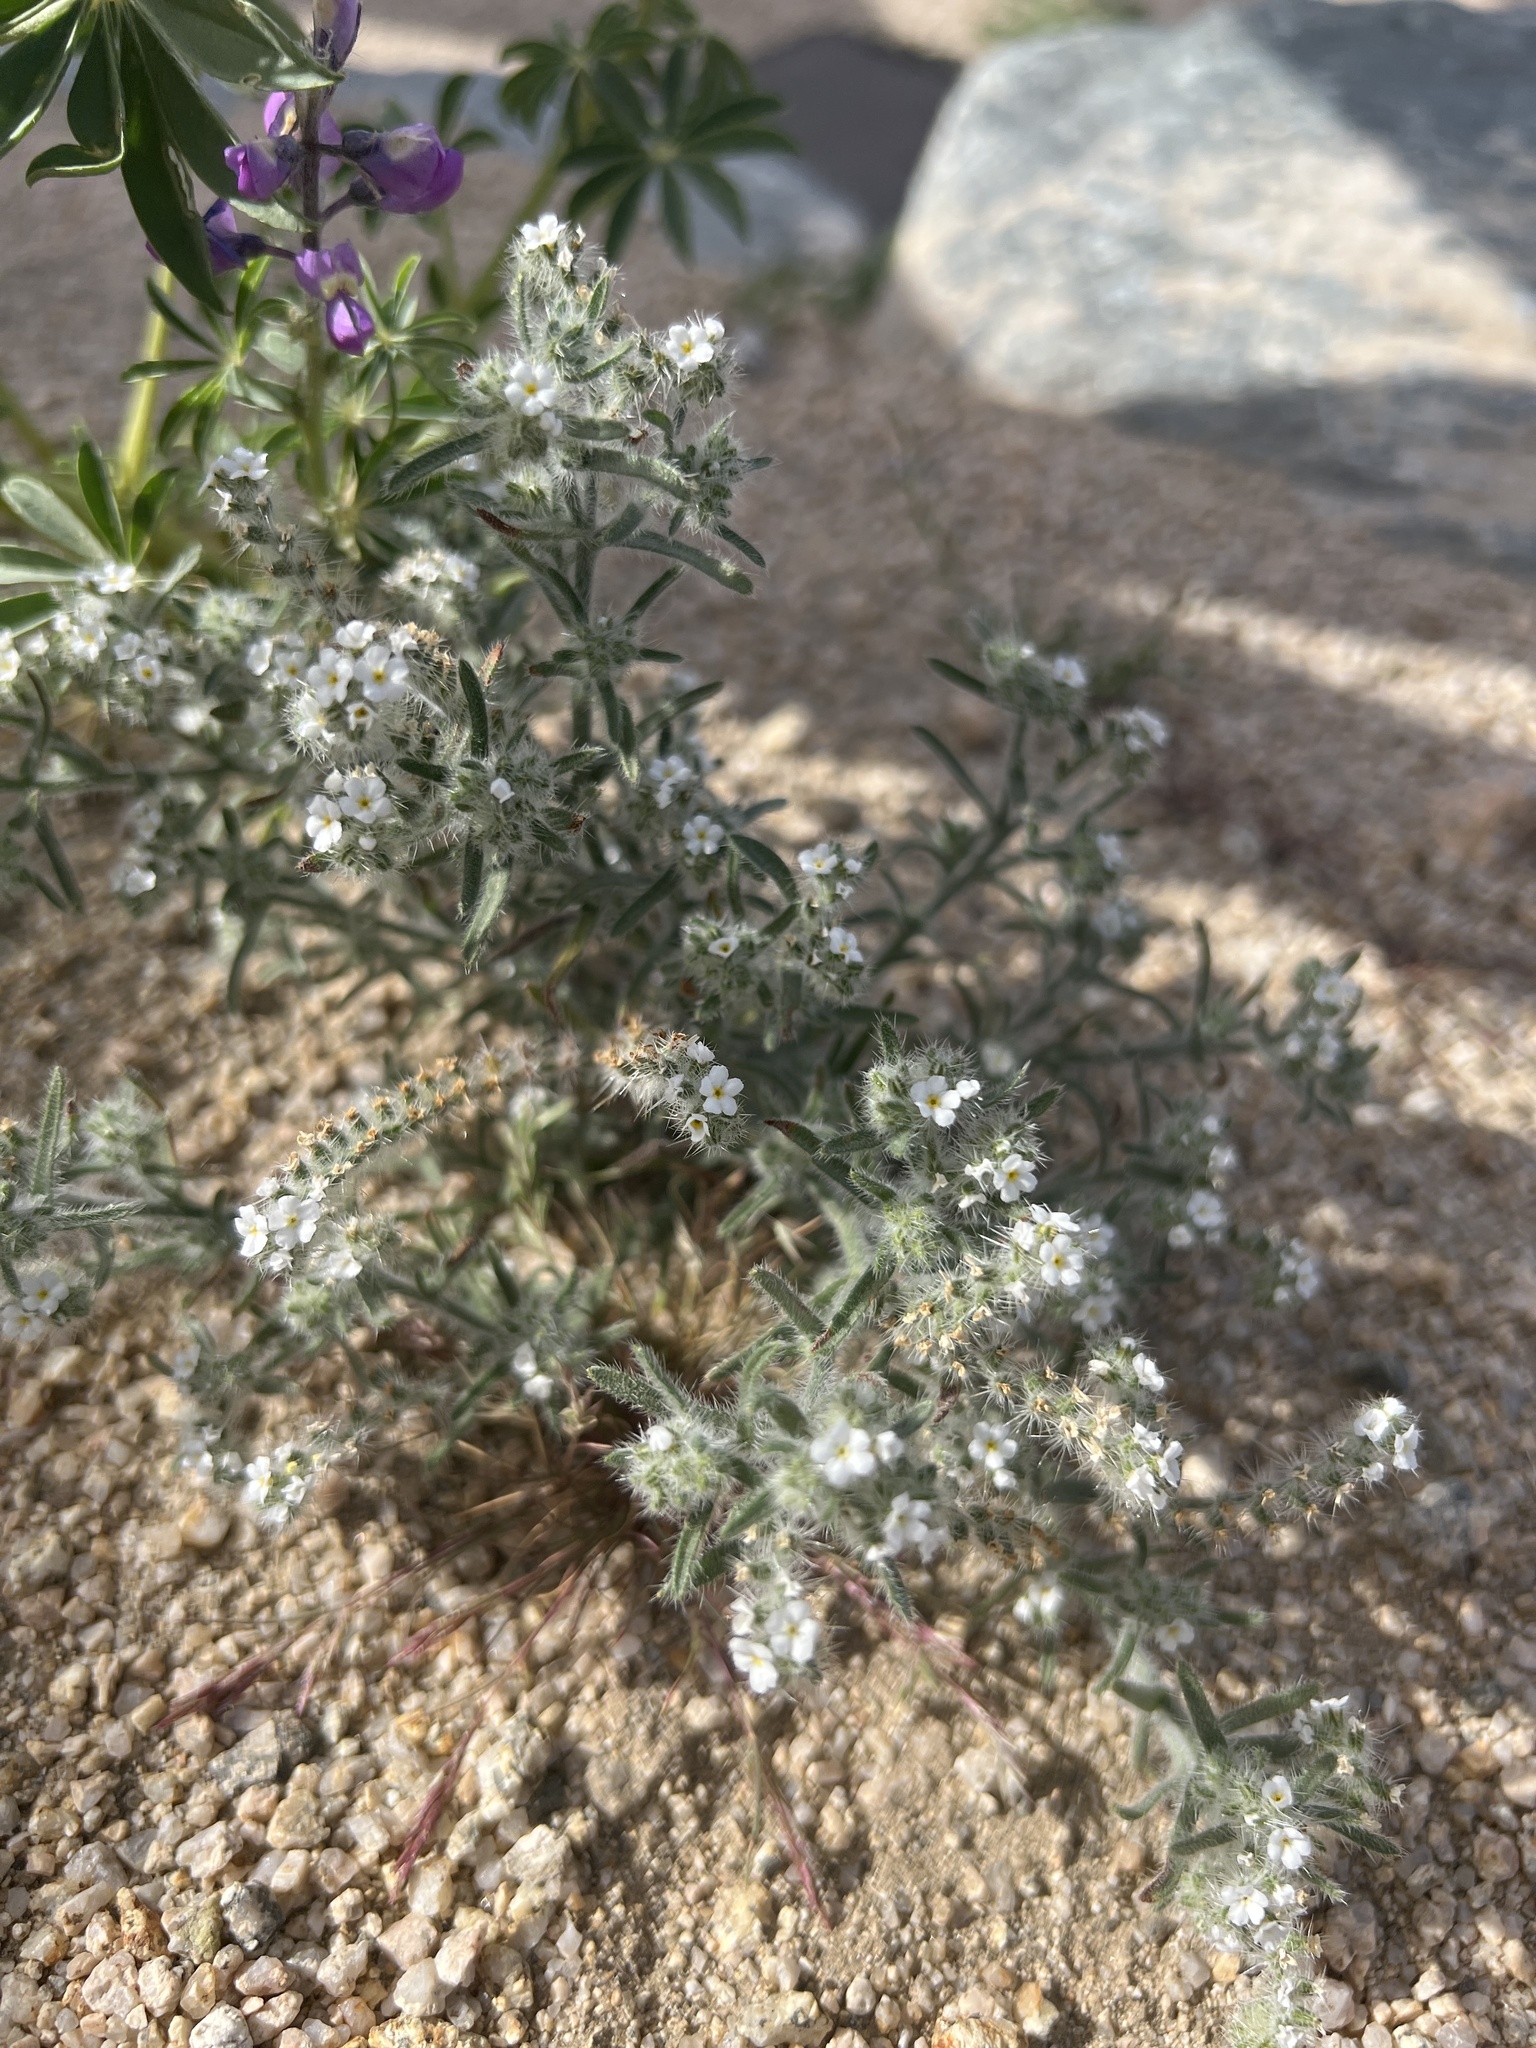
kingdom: Plantae
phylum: Tracheophyta
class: Magnoliopsida
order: Boraginales
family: Boraginaceae
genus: Johnstonella
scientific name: Johnstonella angustifolia
